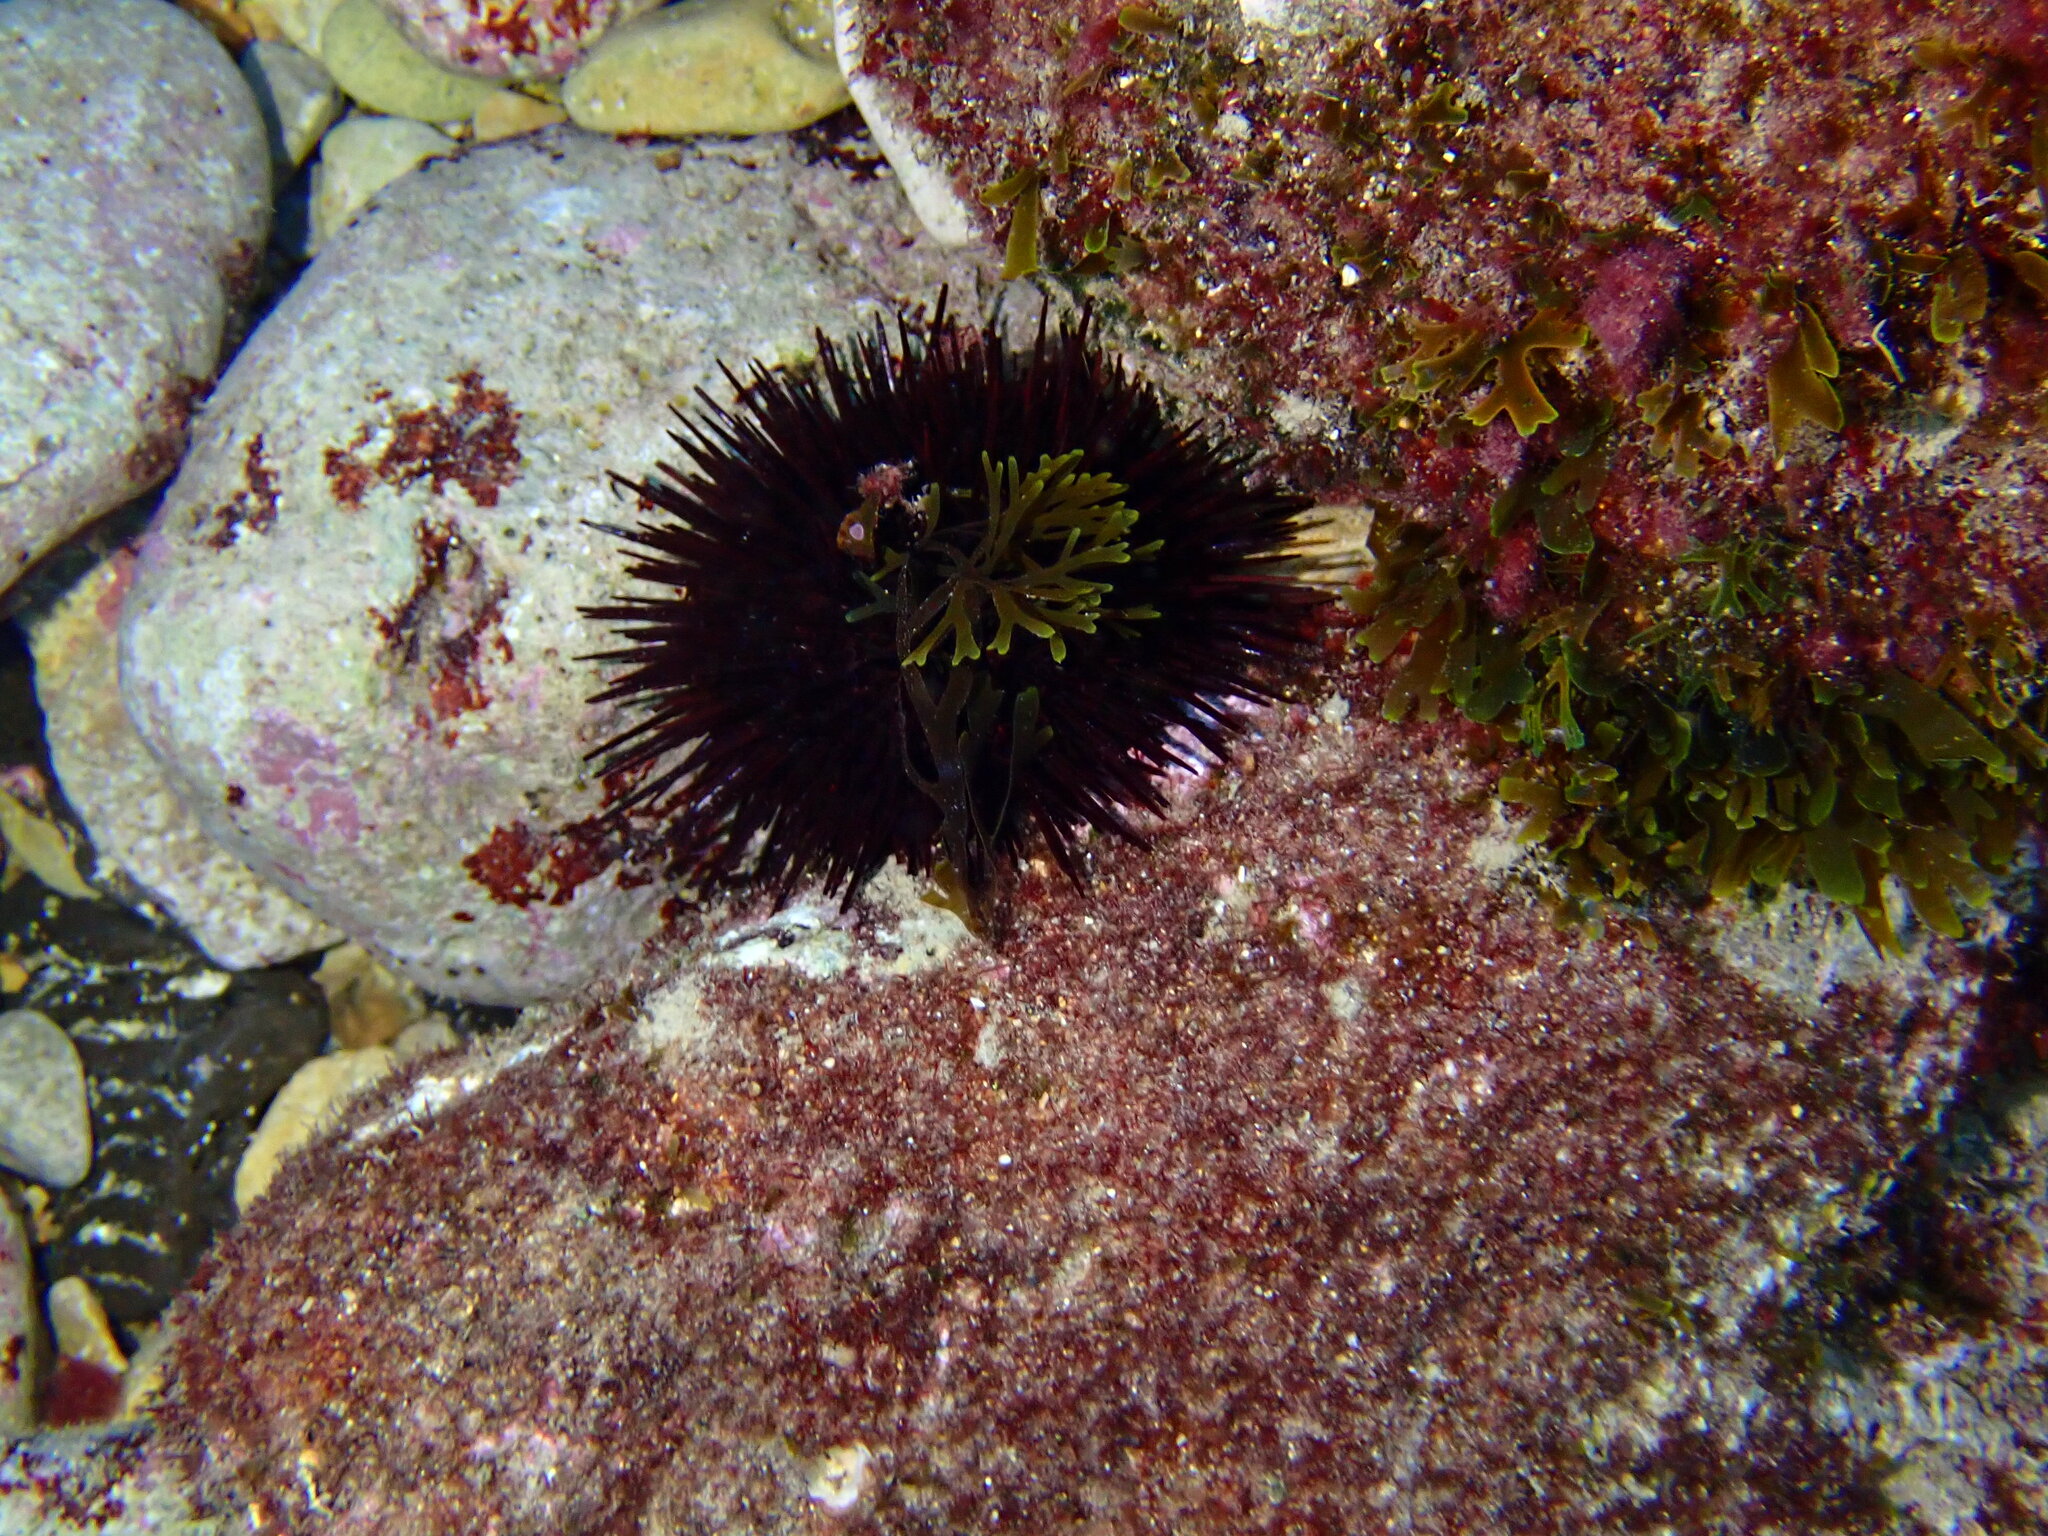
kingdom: Animalia
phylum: Echinodermata
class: Echinoidea
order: Camarodonta
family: Parechinidae
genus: Paracentrotus
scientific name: Paracentrotus lividus
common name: Purple sea urchin
